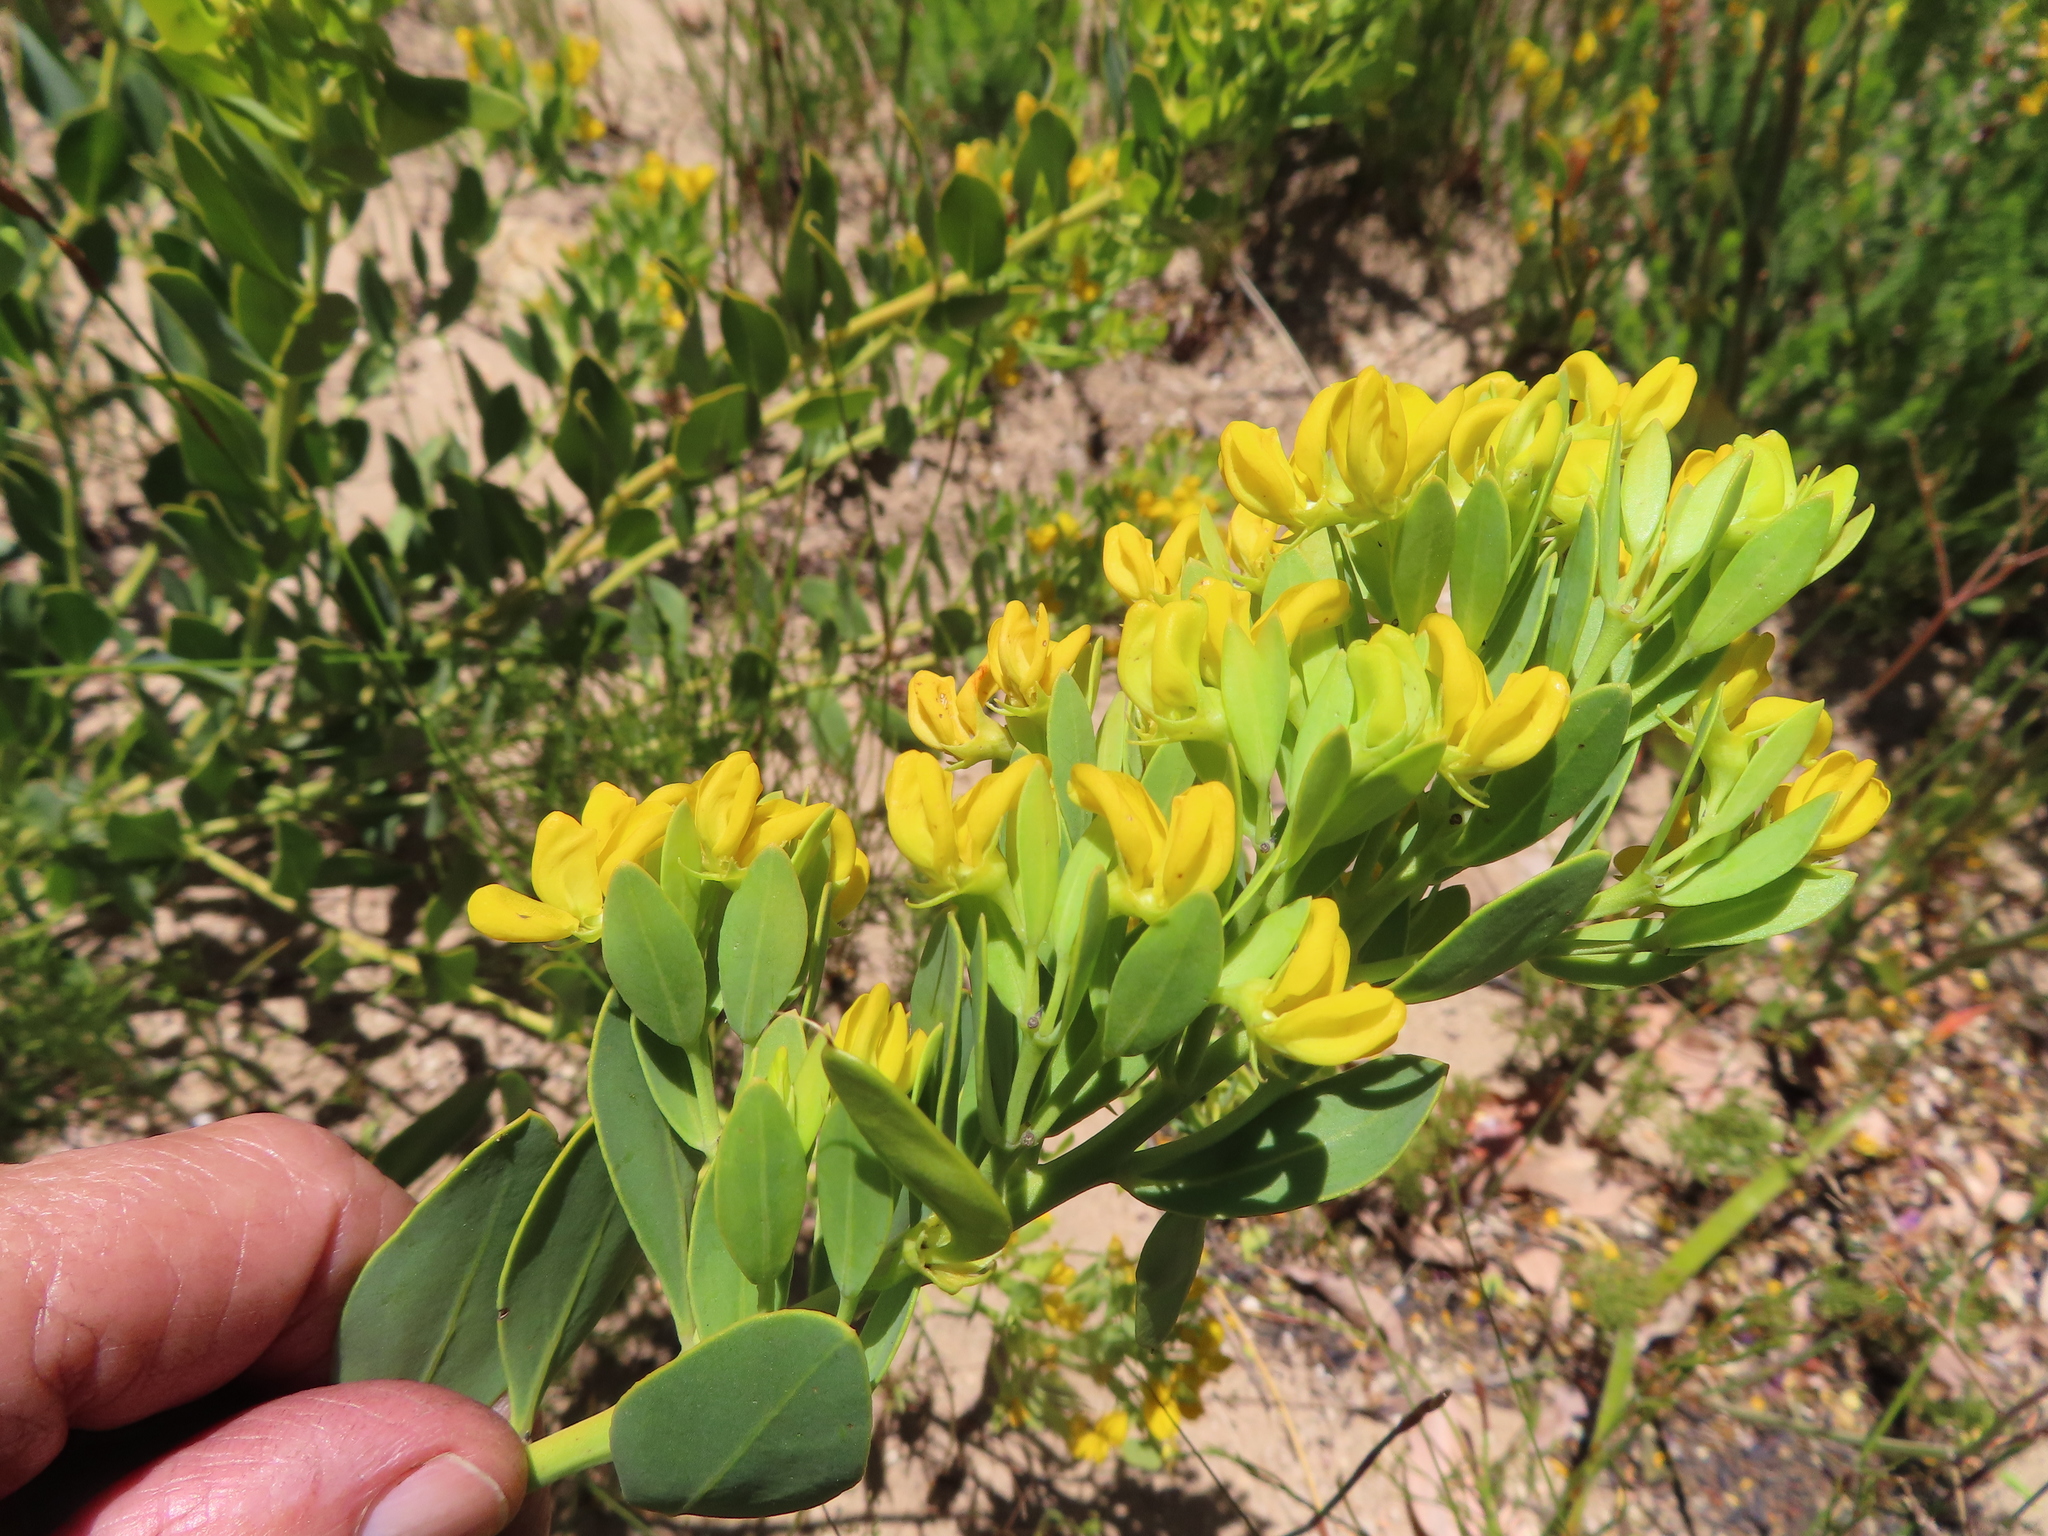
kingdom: Plantae
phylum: Tracheophyta
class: Magnoliopsida
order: Fabales
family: Fabaceae
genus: Rafnia
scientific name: Rafnia capensis
